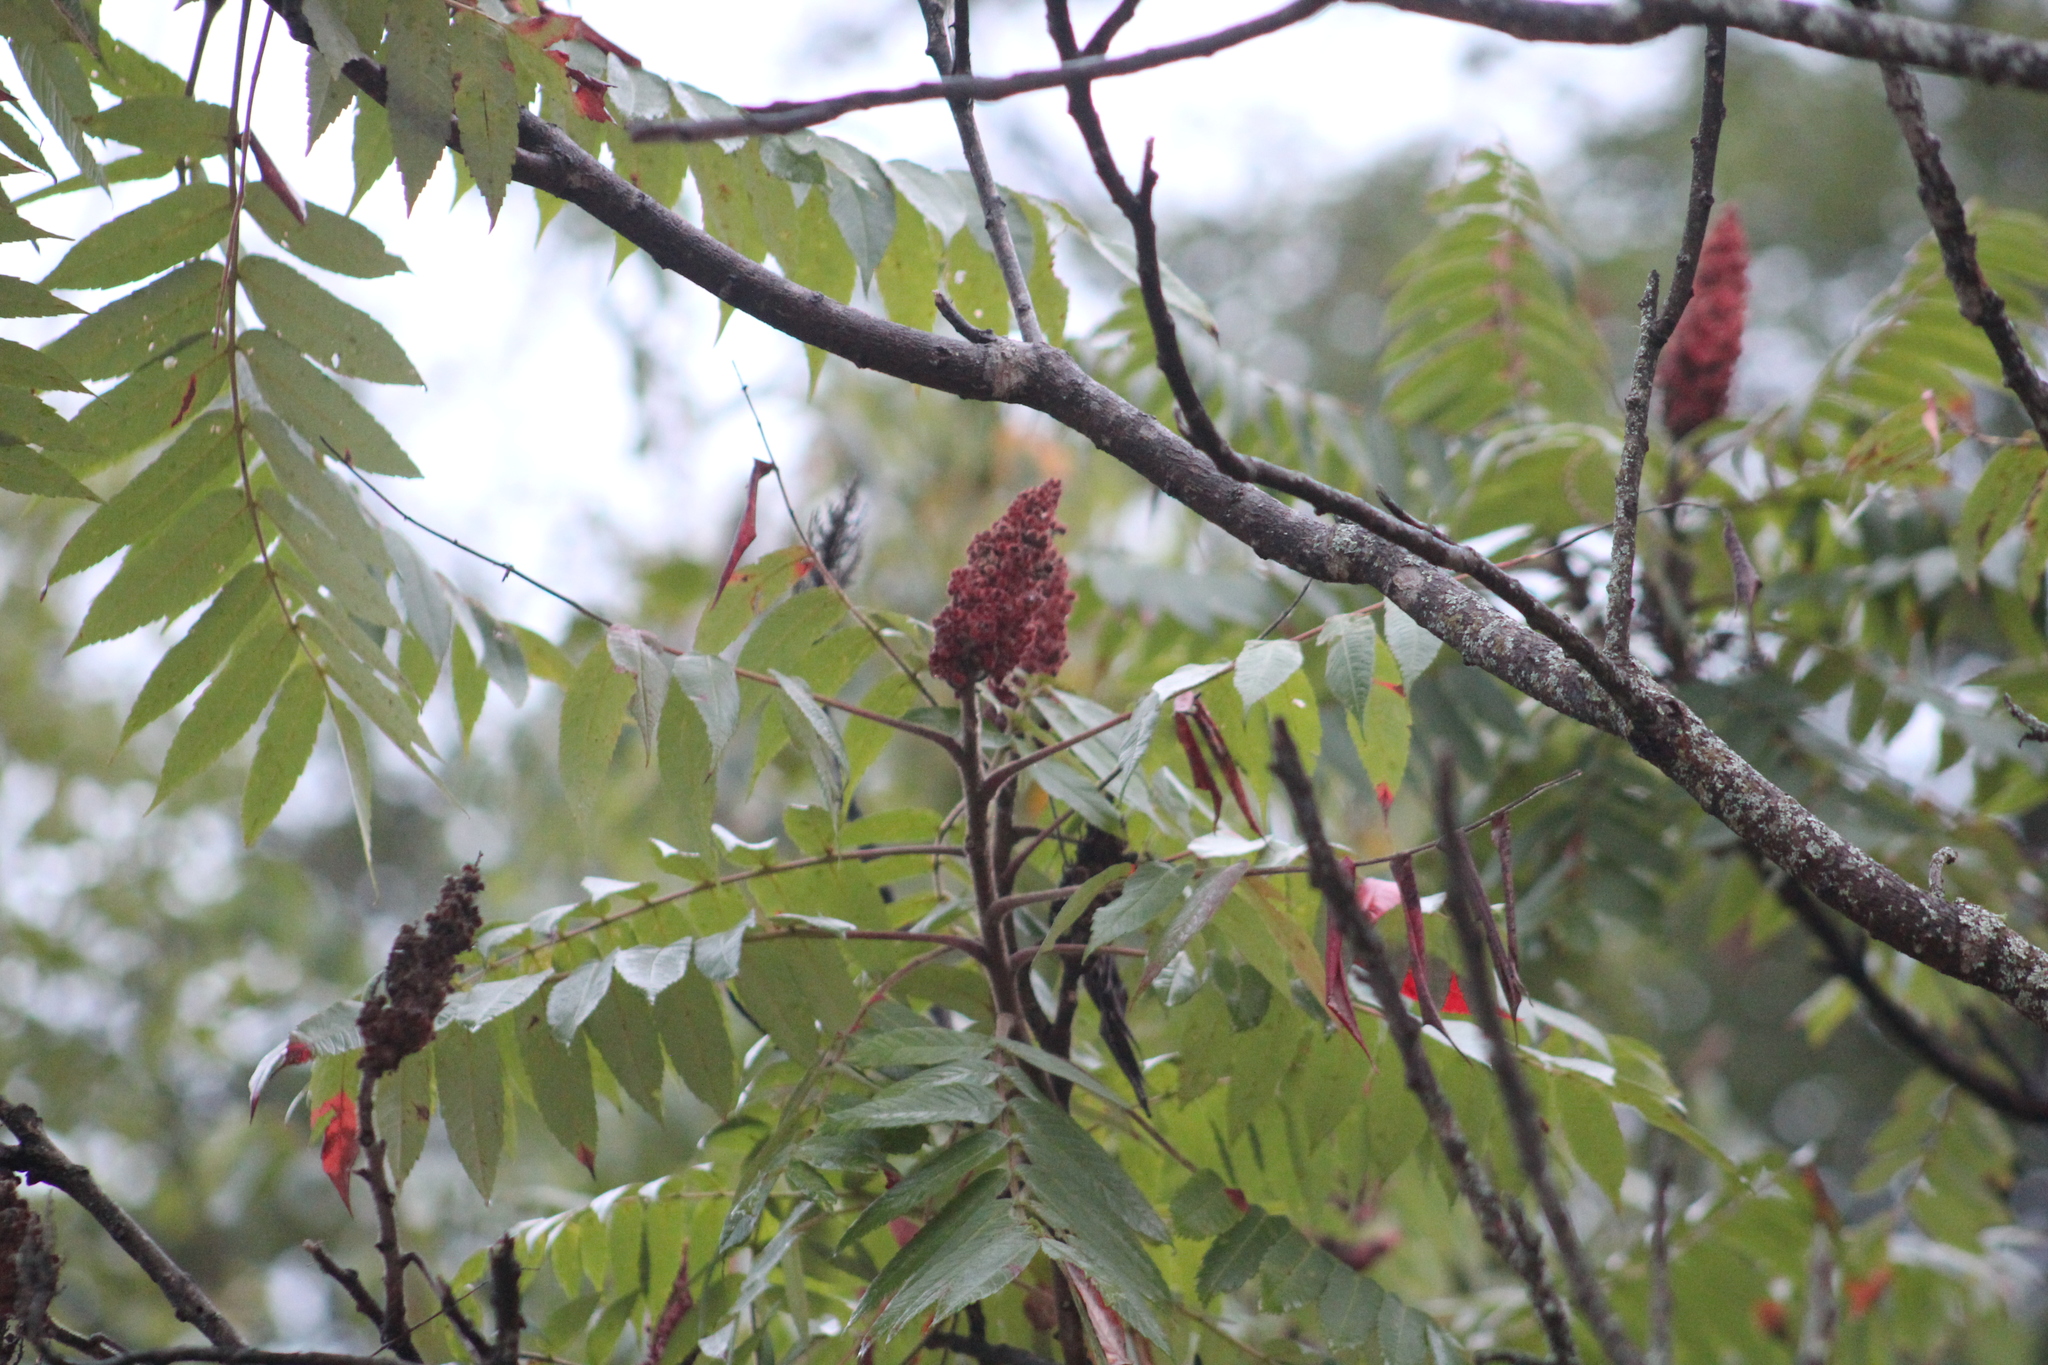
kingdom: Plantae
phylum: Tracheophyta
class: Magnoliopsida
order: Sapindales
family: Anacardiaceae
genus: Rhus
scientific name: Rhus typhina
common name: Staghorn sumac
